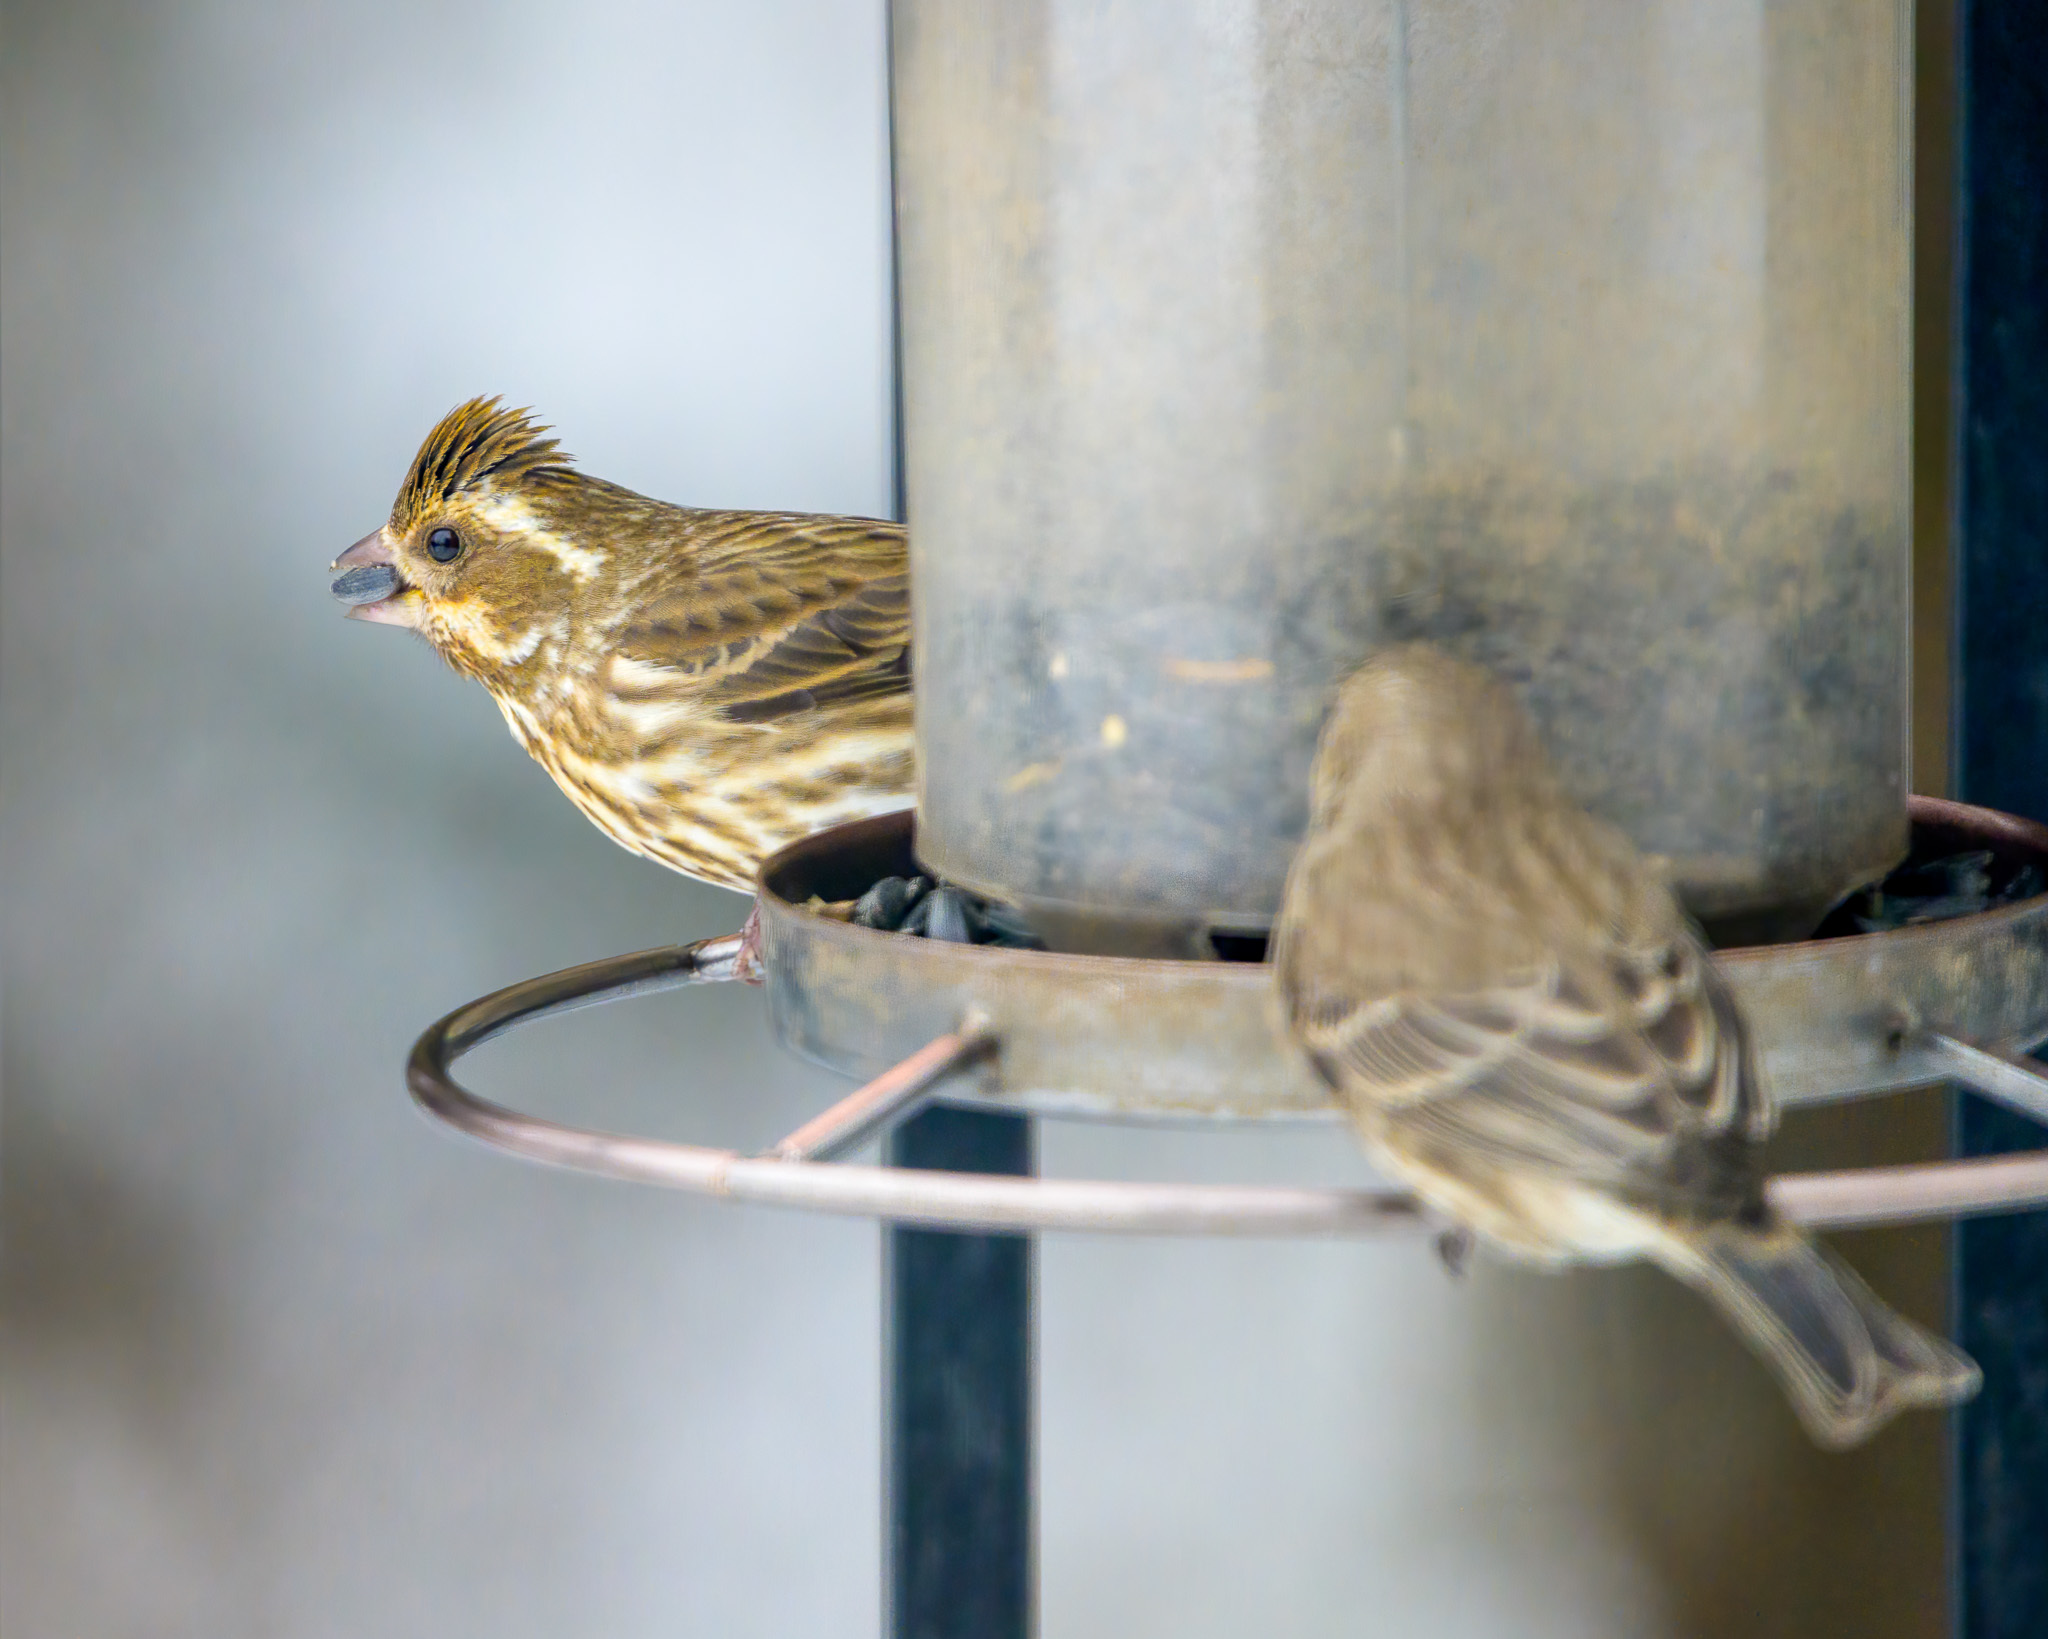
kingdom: Animalia
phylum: Chordata
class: Aves
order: Passeriformes
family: Fringillidae
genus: Haemorhous
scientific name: Haemorhous purpureus
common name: Purple finch
